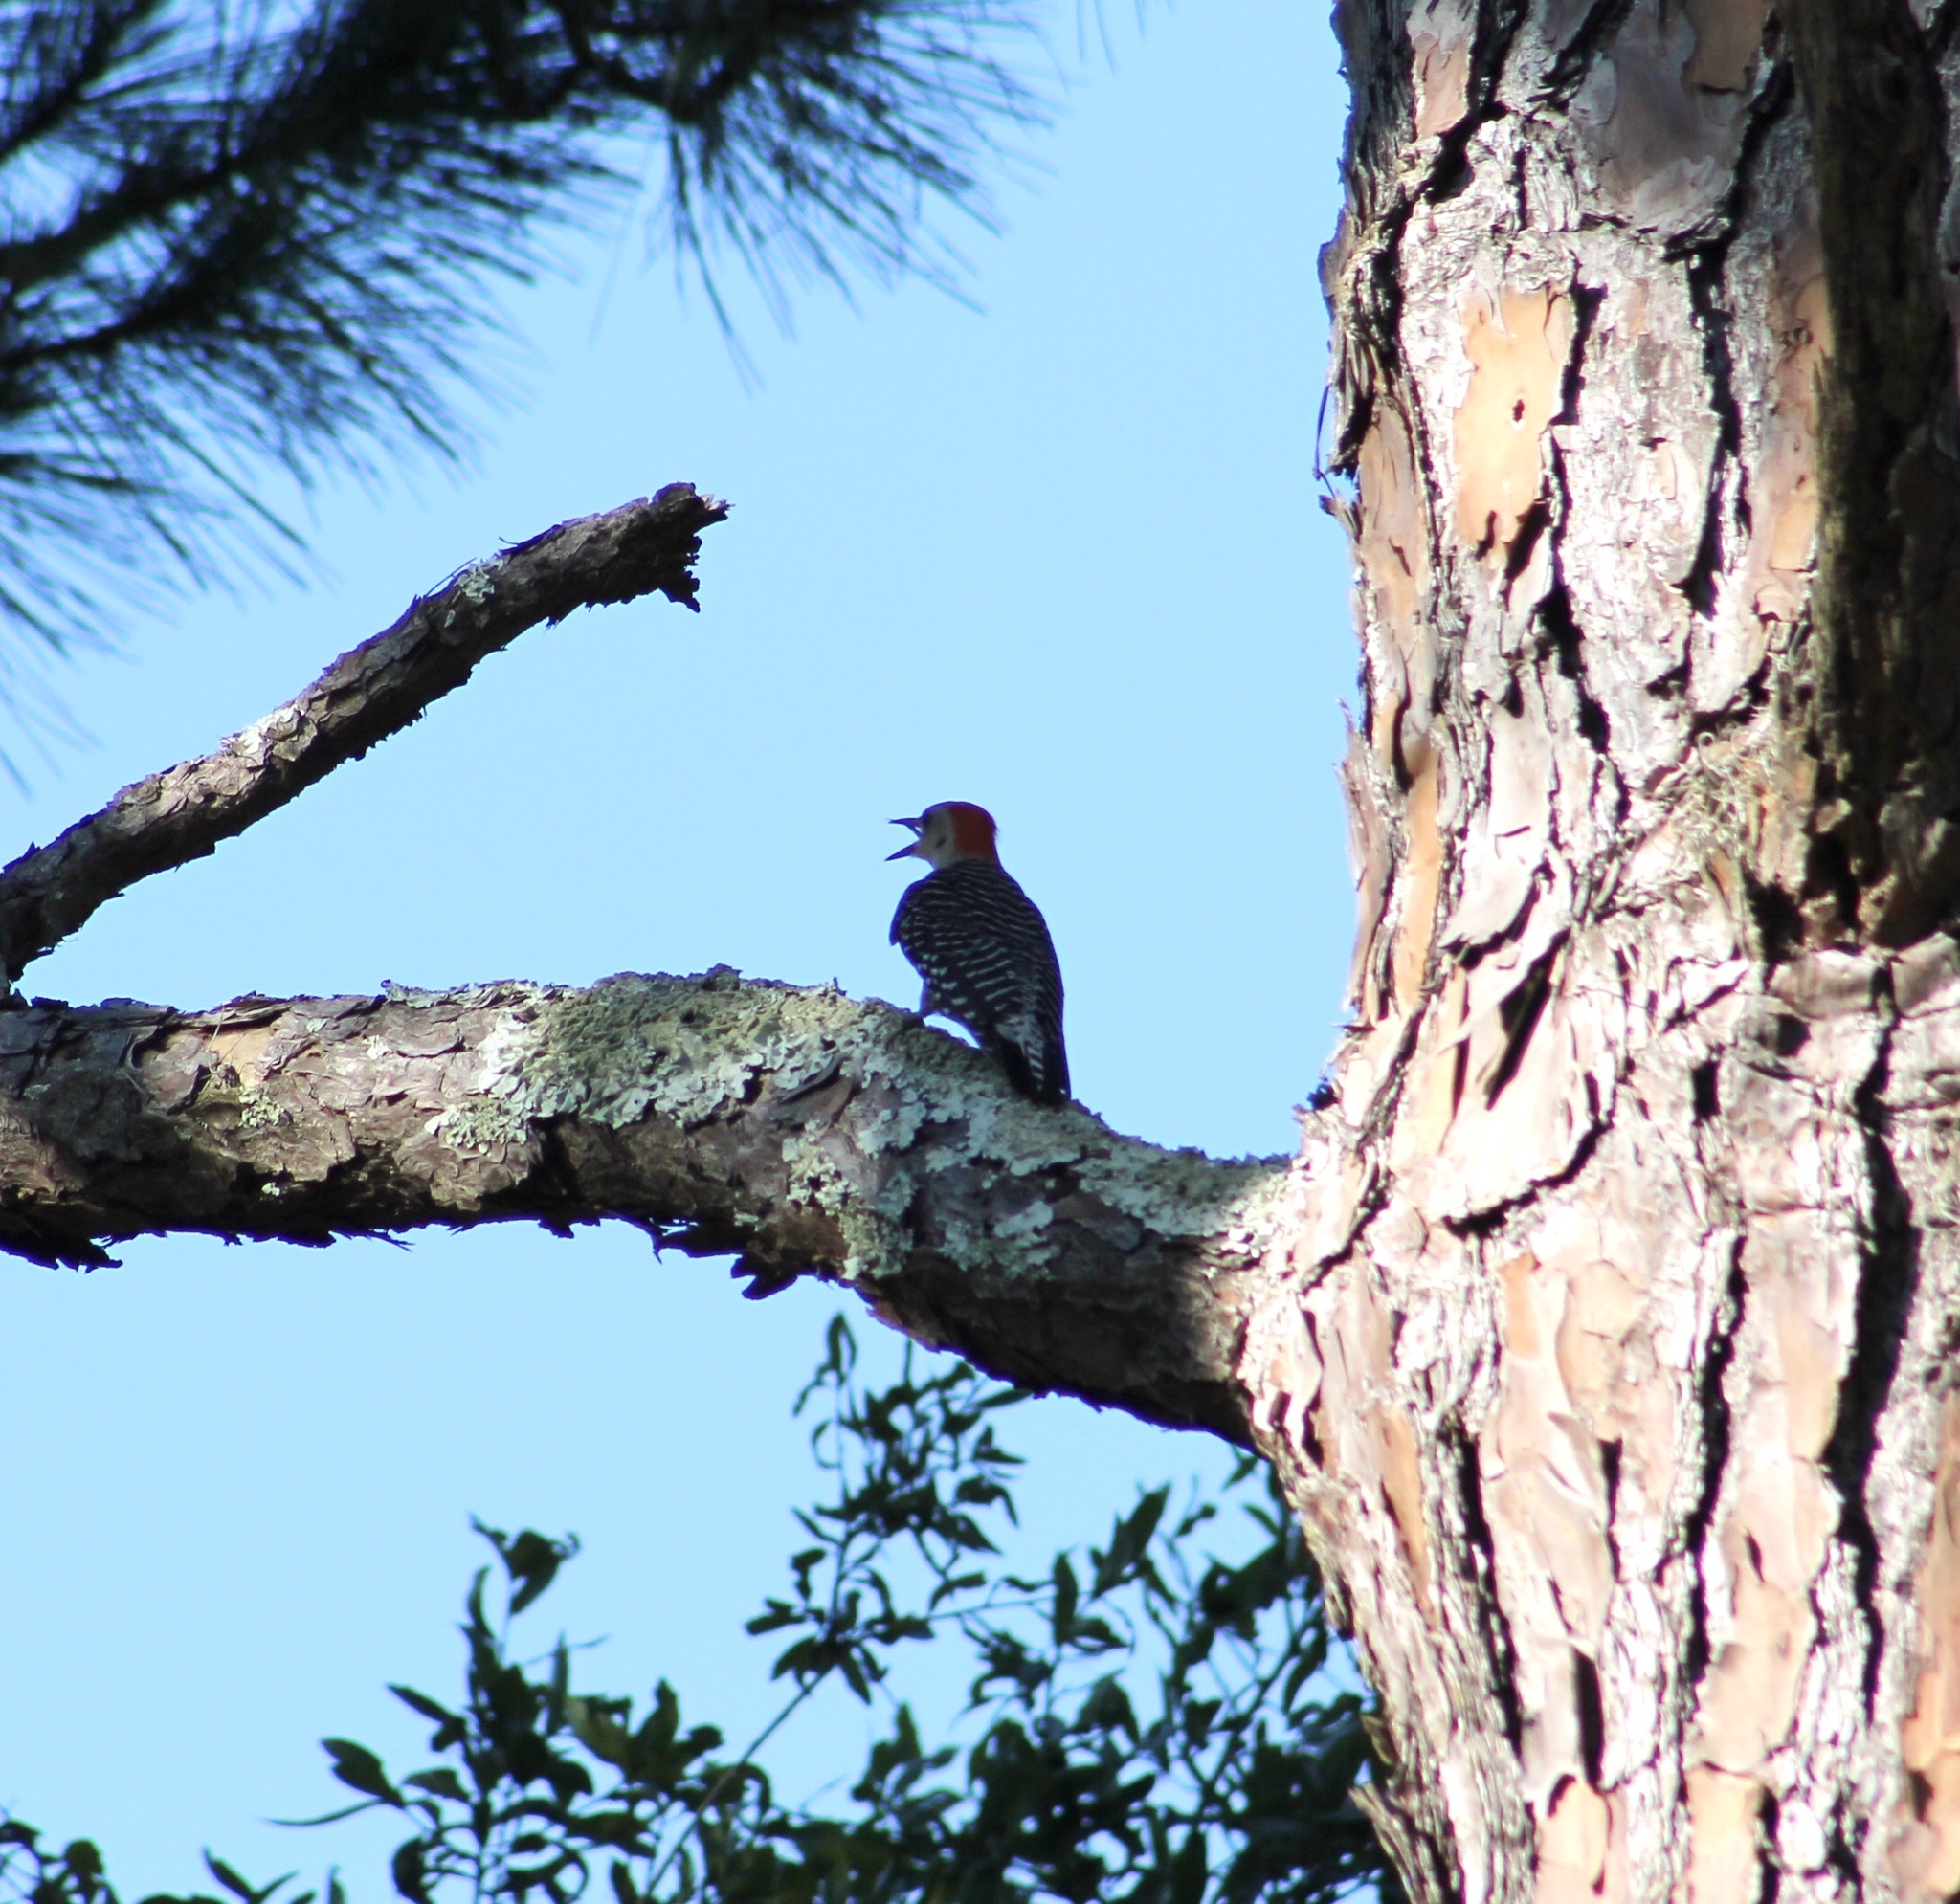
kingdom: Animalia
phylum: Chordata
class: Aves
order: Piciformes
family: Picidae
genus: Melanerpes
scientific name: Melanerpes carolinus
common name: Red-bellied woodpecker
